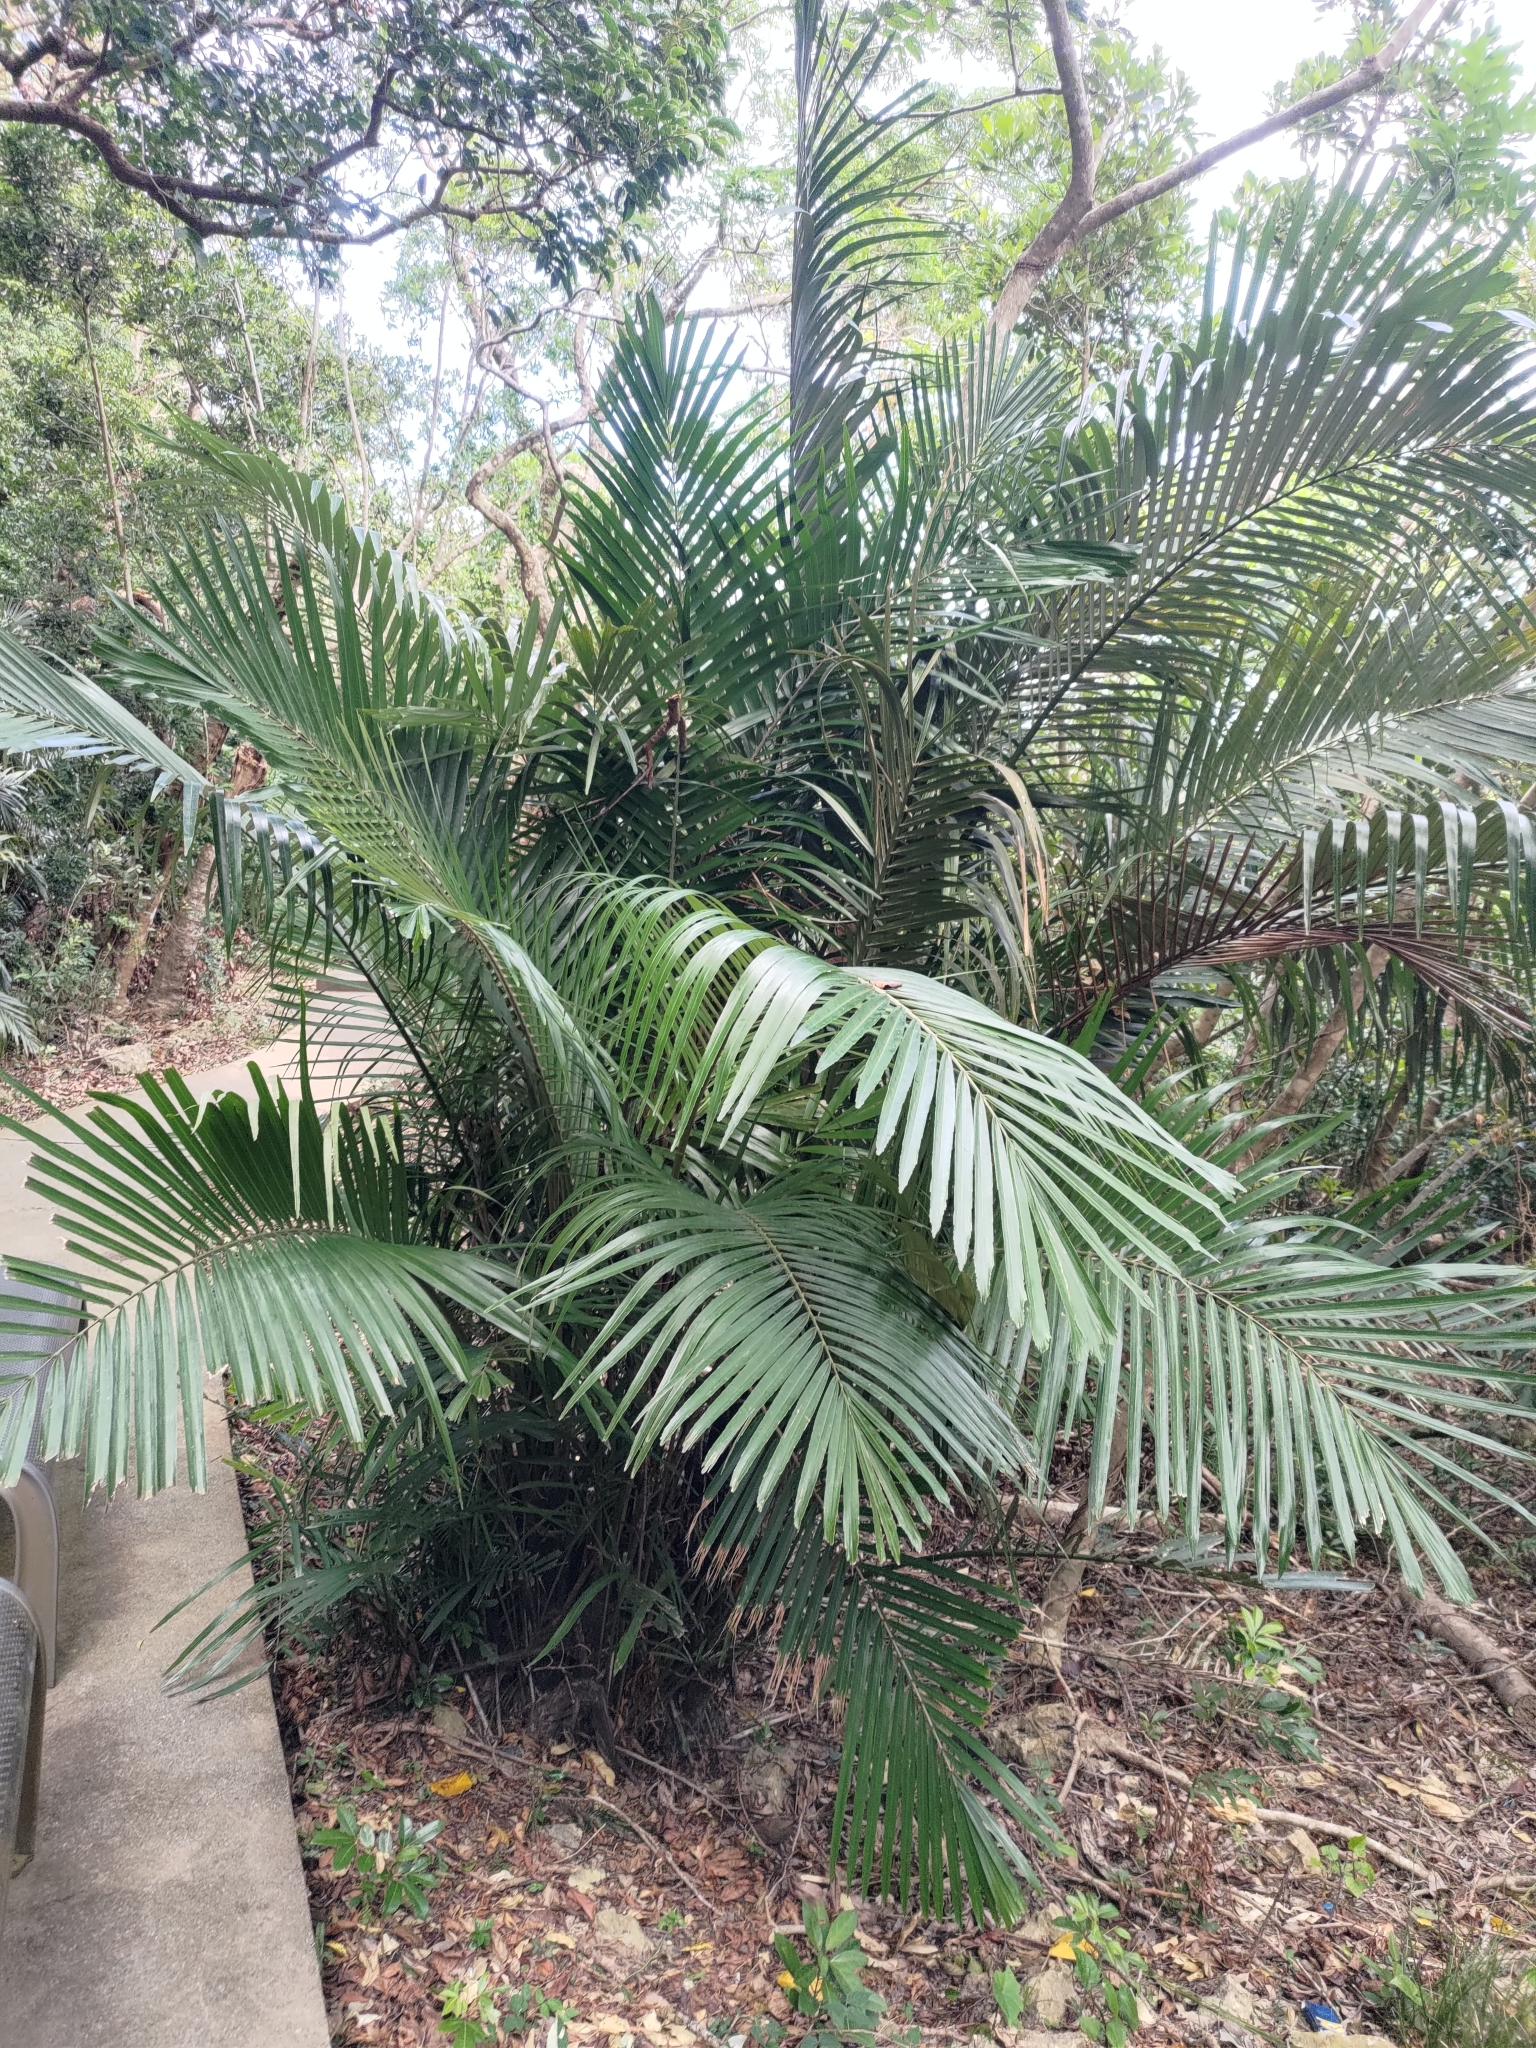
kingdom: Plantae
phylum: Tracheophyta
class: Liliopsida
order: Arecales
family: Arecaceae
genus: Arenga
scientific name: Arenga engleri
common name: Formosan sugar palm
